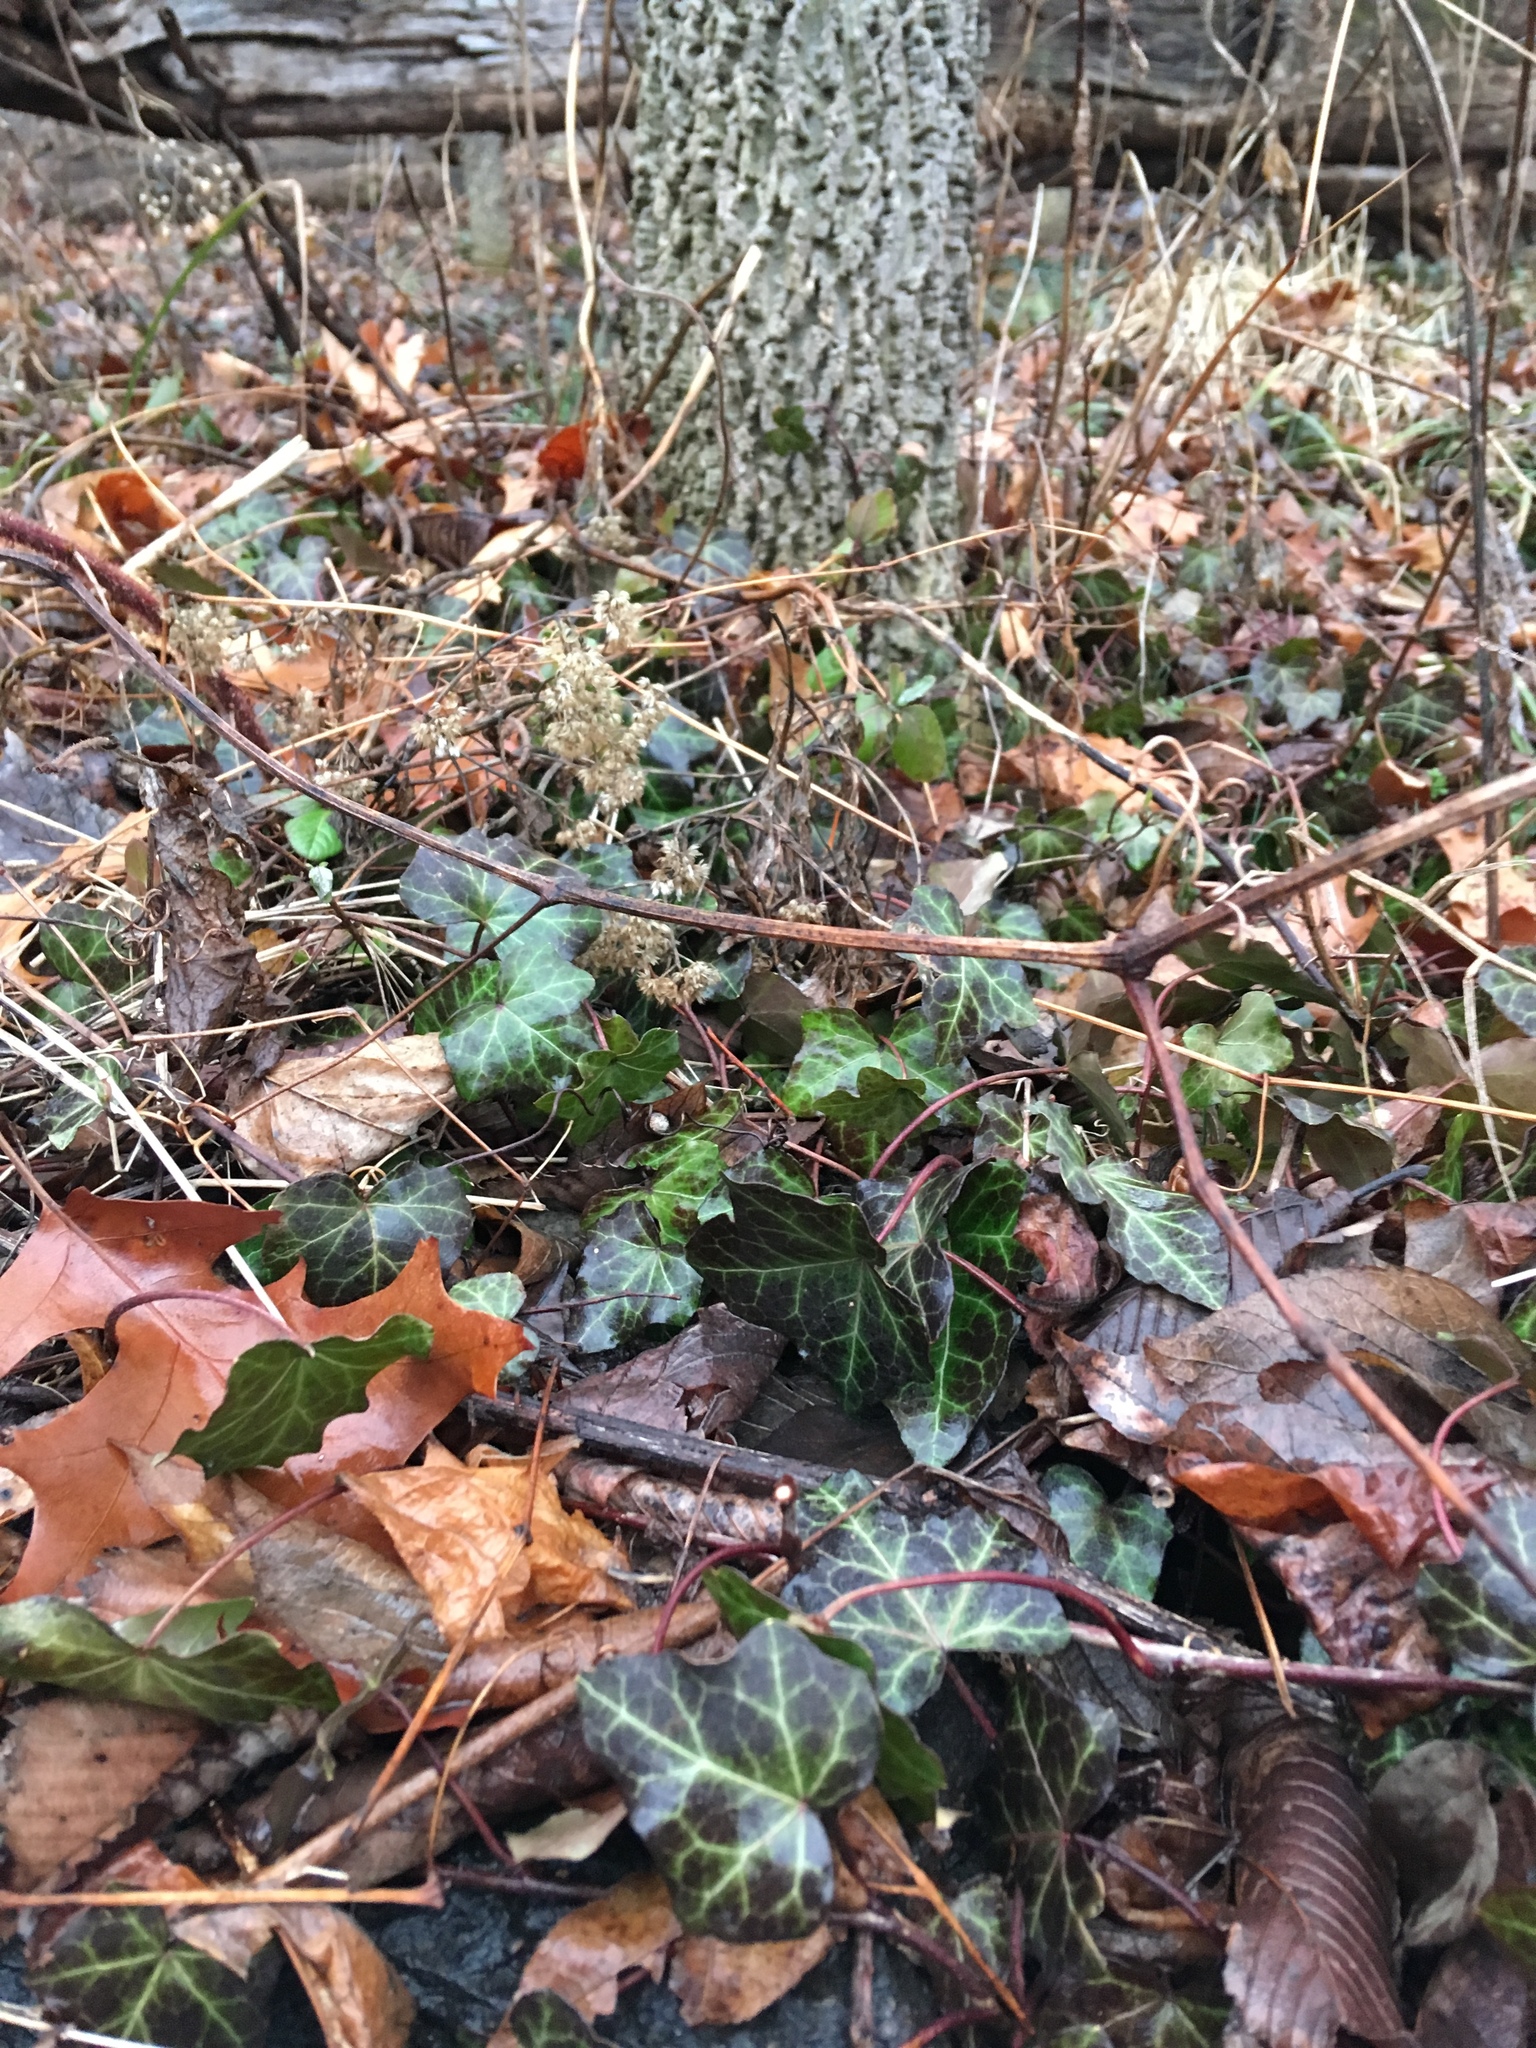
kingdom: Plantae
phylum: Tracheophyta
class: Magnoliopsida
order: Apiales
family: Araliaceae
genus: Hedera
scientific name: Hedera helix
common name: Ivy
